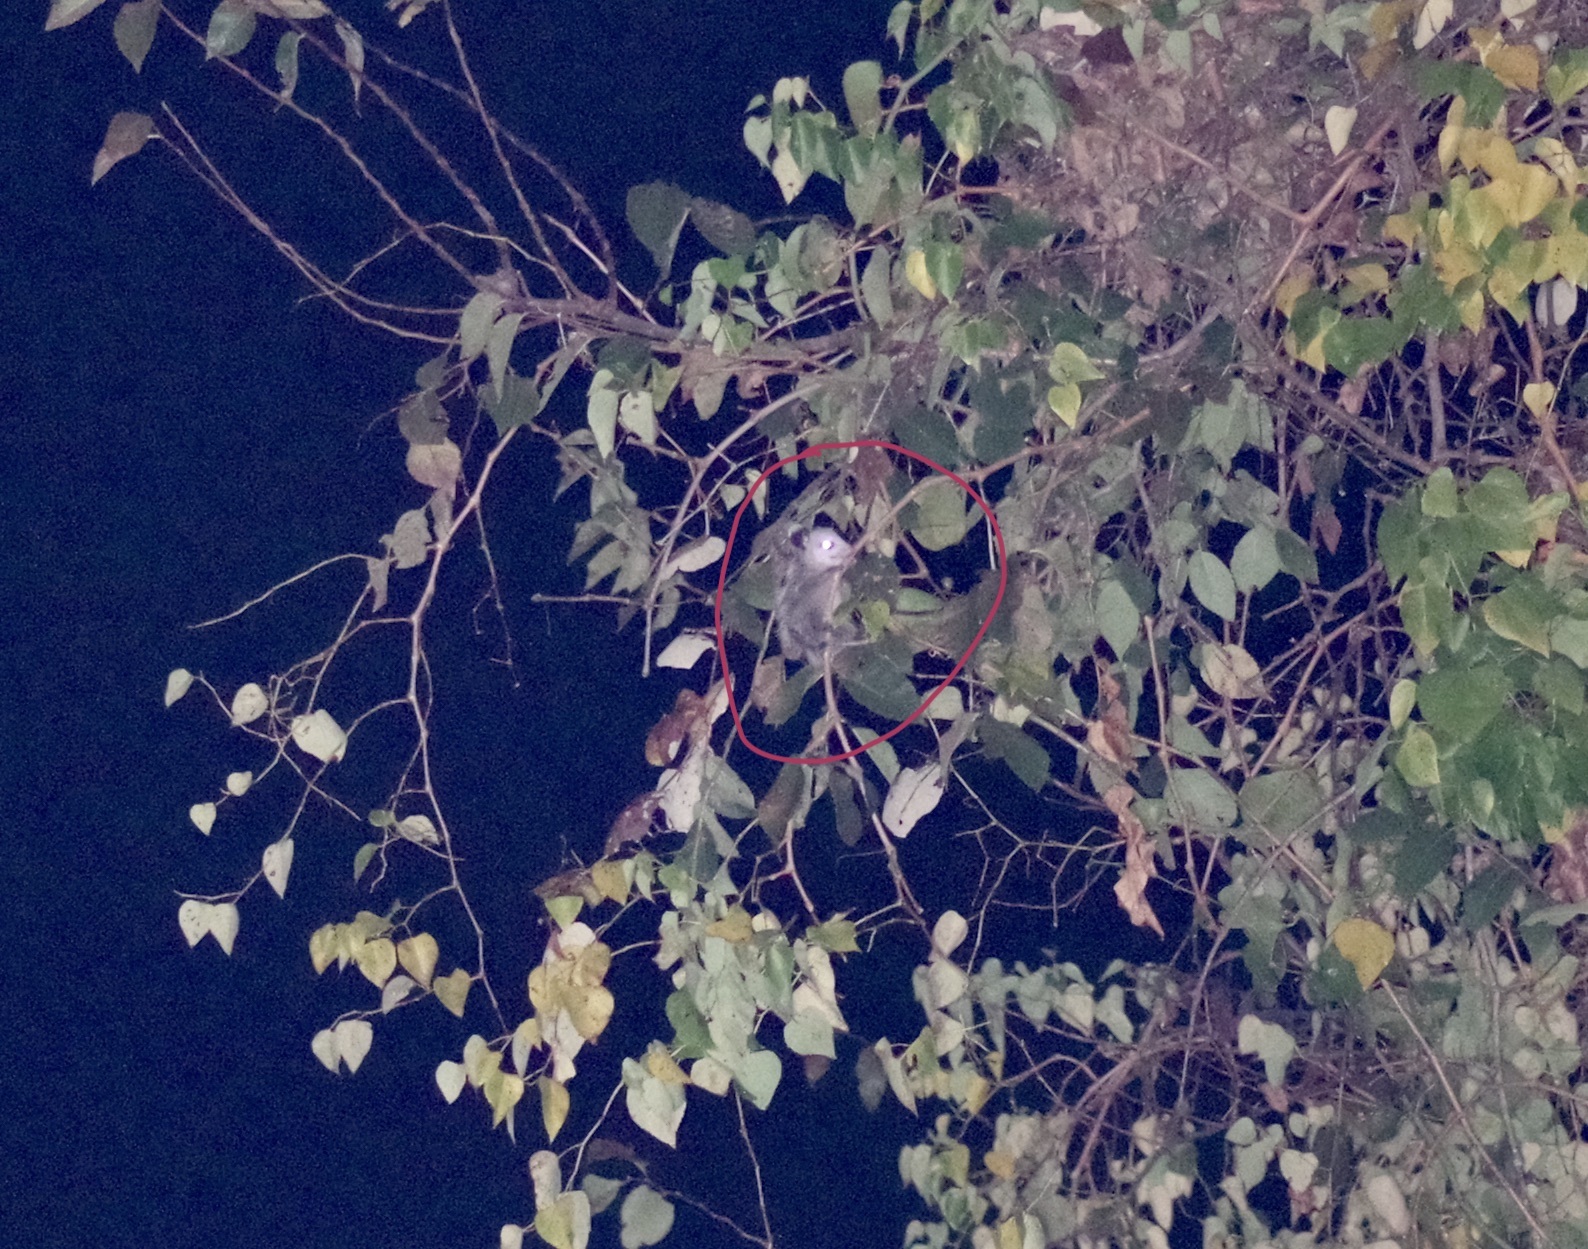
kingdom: Animalia
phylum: Chordata
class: Mammalia
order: Didelphimorphia
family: Didelphidae
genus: Didelphis
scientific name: Didelphis virginiana
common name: Virginia opossum
